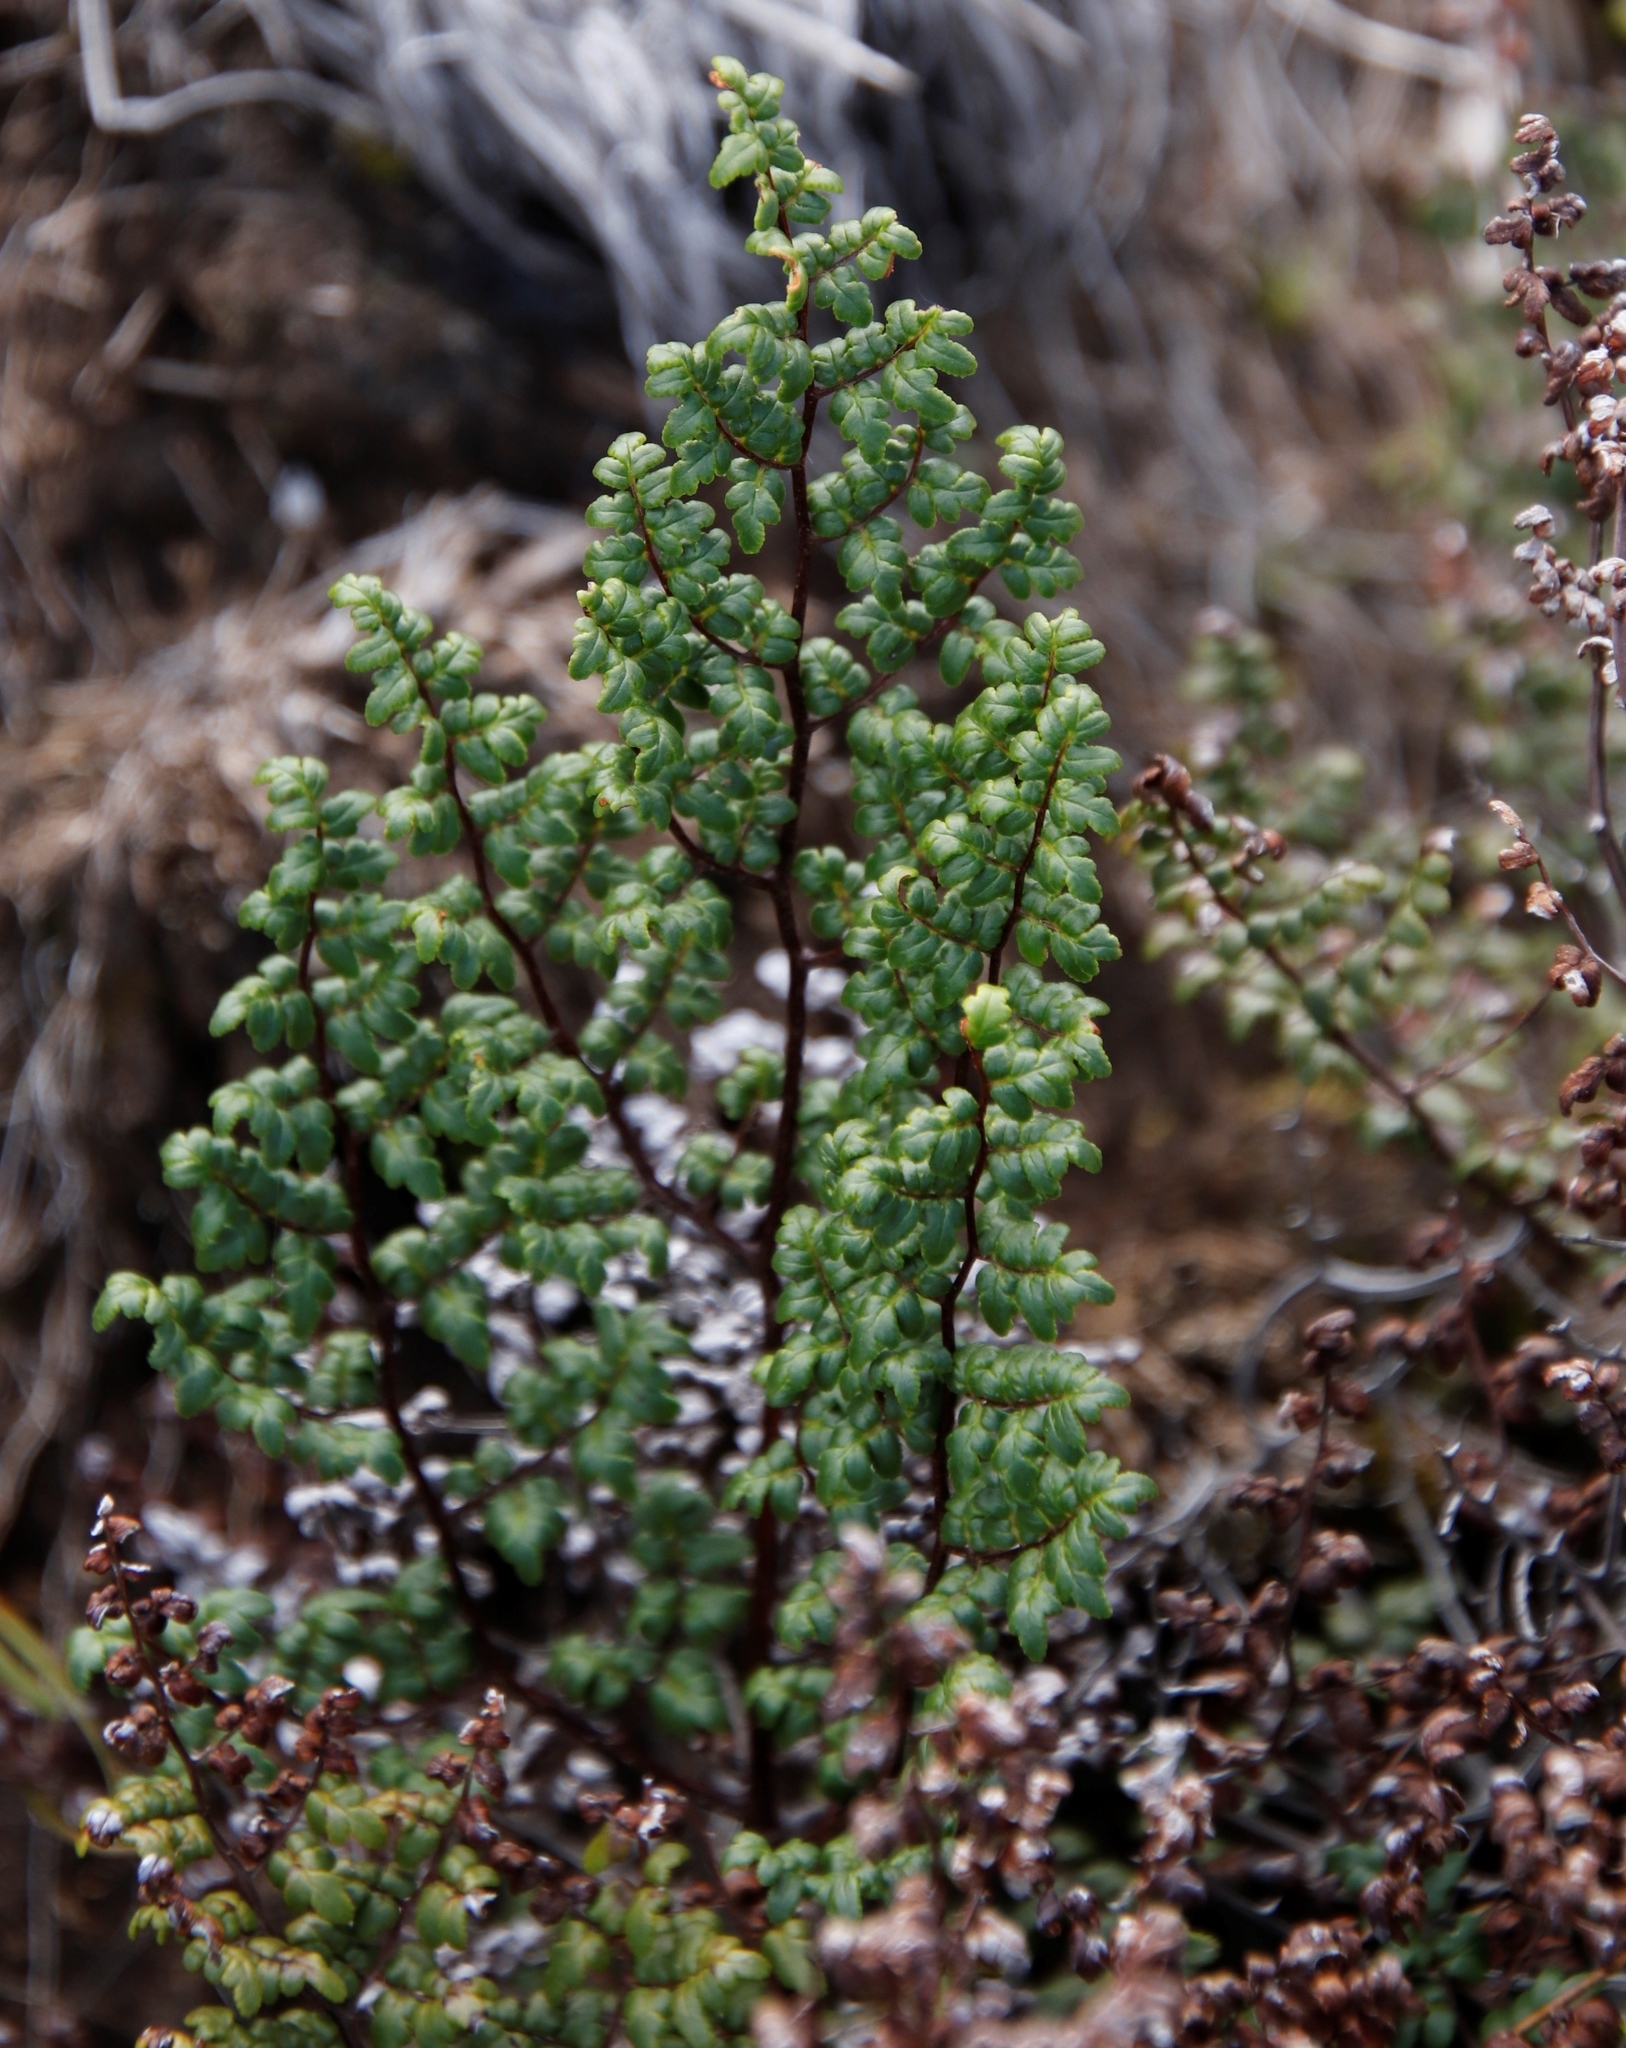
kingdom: Plantae
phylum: Tracheophyta
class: Polypodiopsida
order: Polypodiales
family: Pteridaceae
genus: Cheilanthes
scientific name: Cheilanthes quadripinnata
